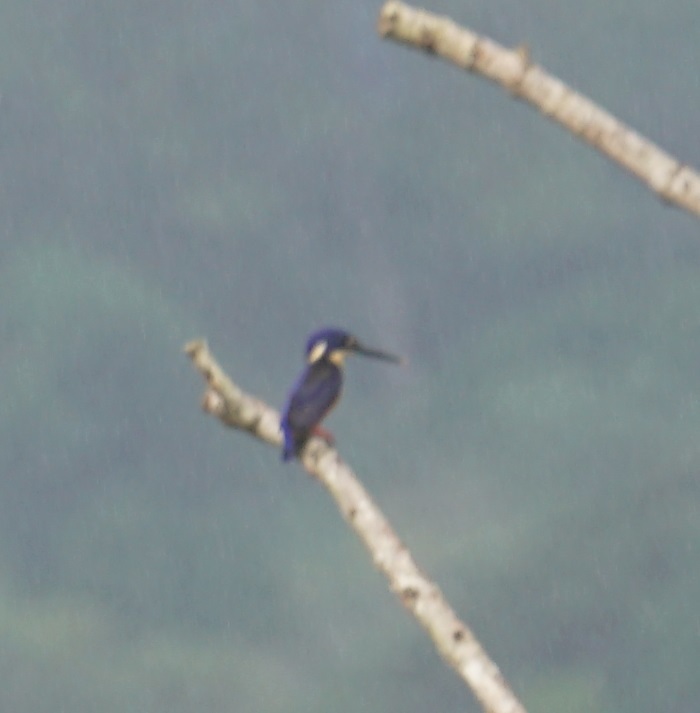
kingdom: Animalia
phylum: Chordata
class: Aves
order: Coraciiformes
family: Alcedinidae
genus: Ceyx
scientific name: Ceyx azureus
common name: Azure kingfisher
